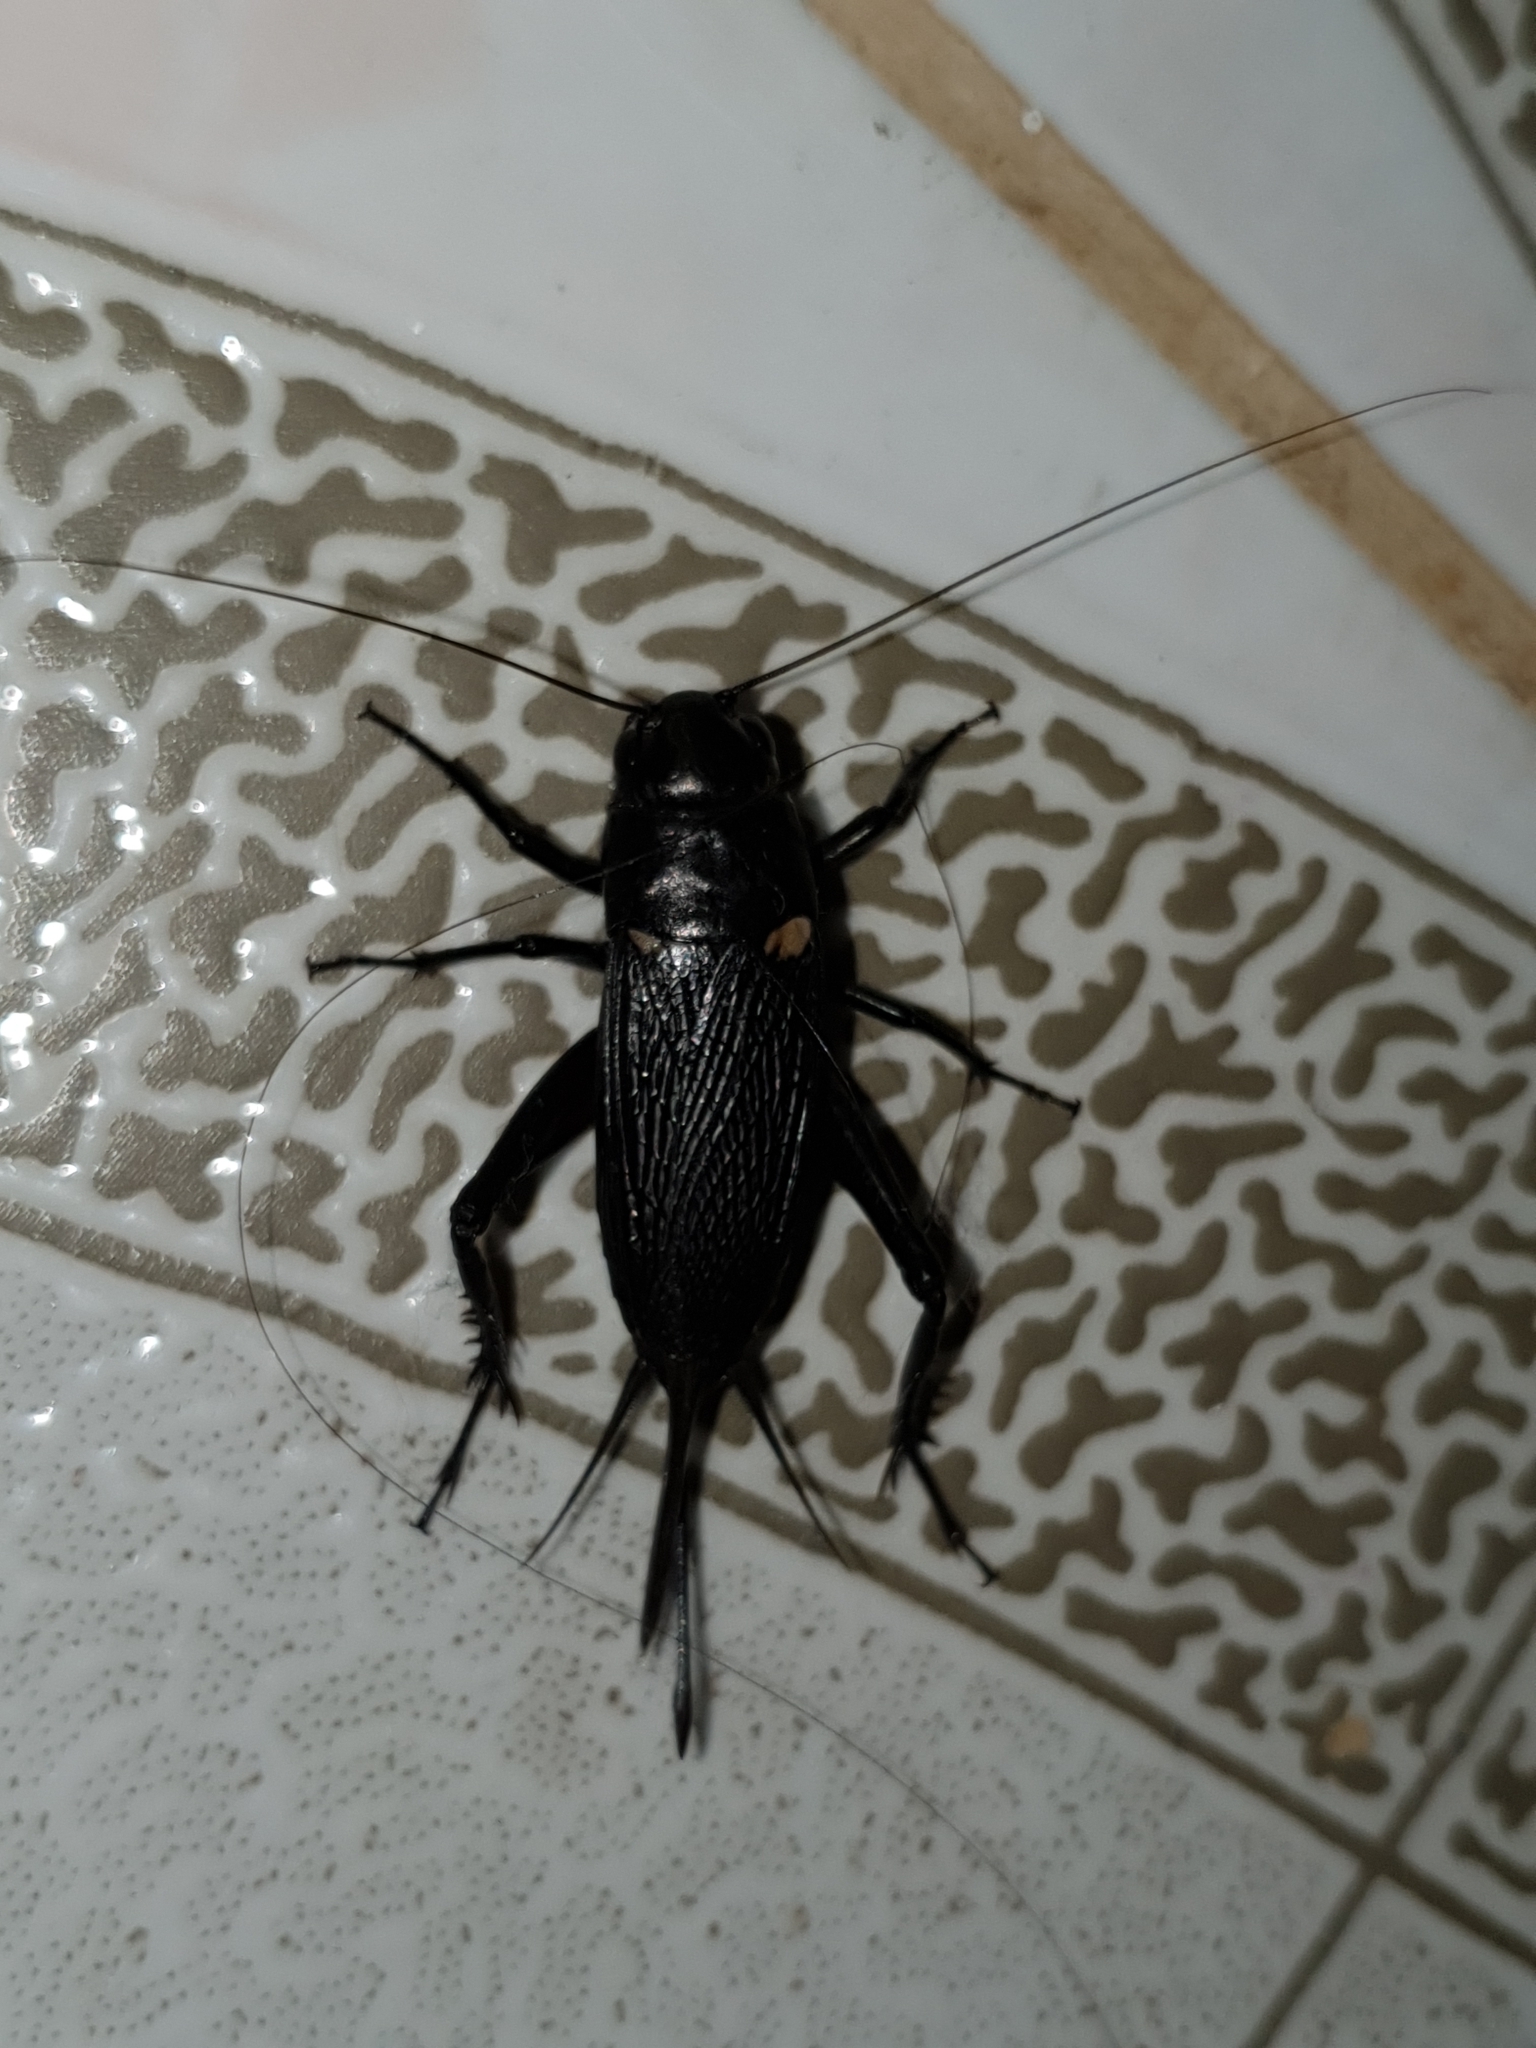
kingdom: Animalia
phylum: Arthropoda
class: Insecta
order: Orthoptera
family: Gryllidae
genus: Gryllus
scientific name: Gryllus bimaculatus
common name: Two-spotted cricket
